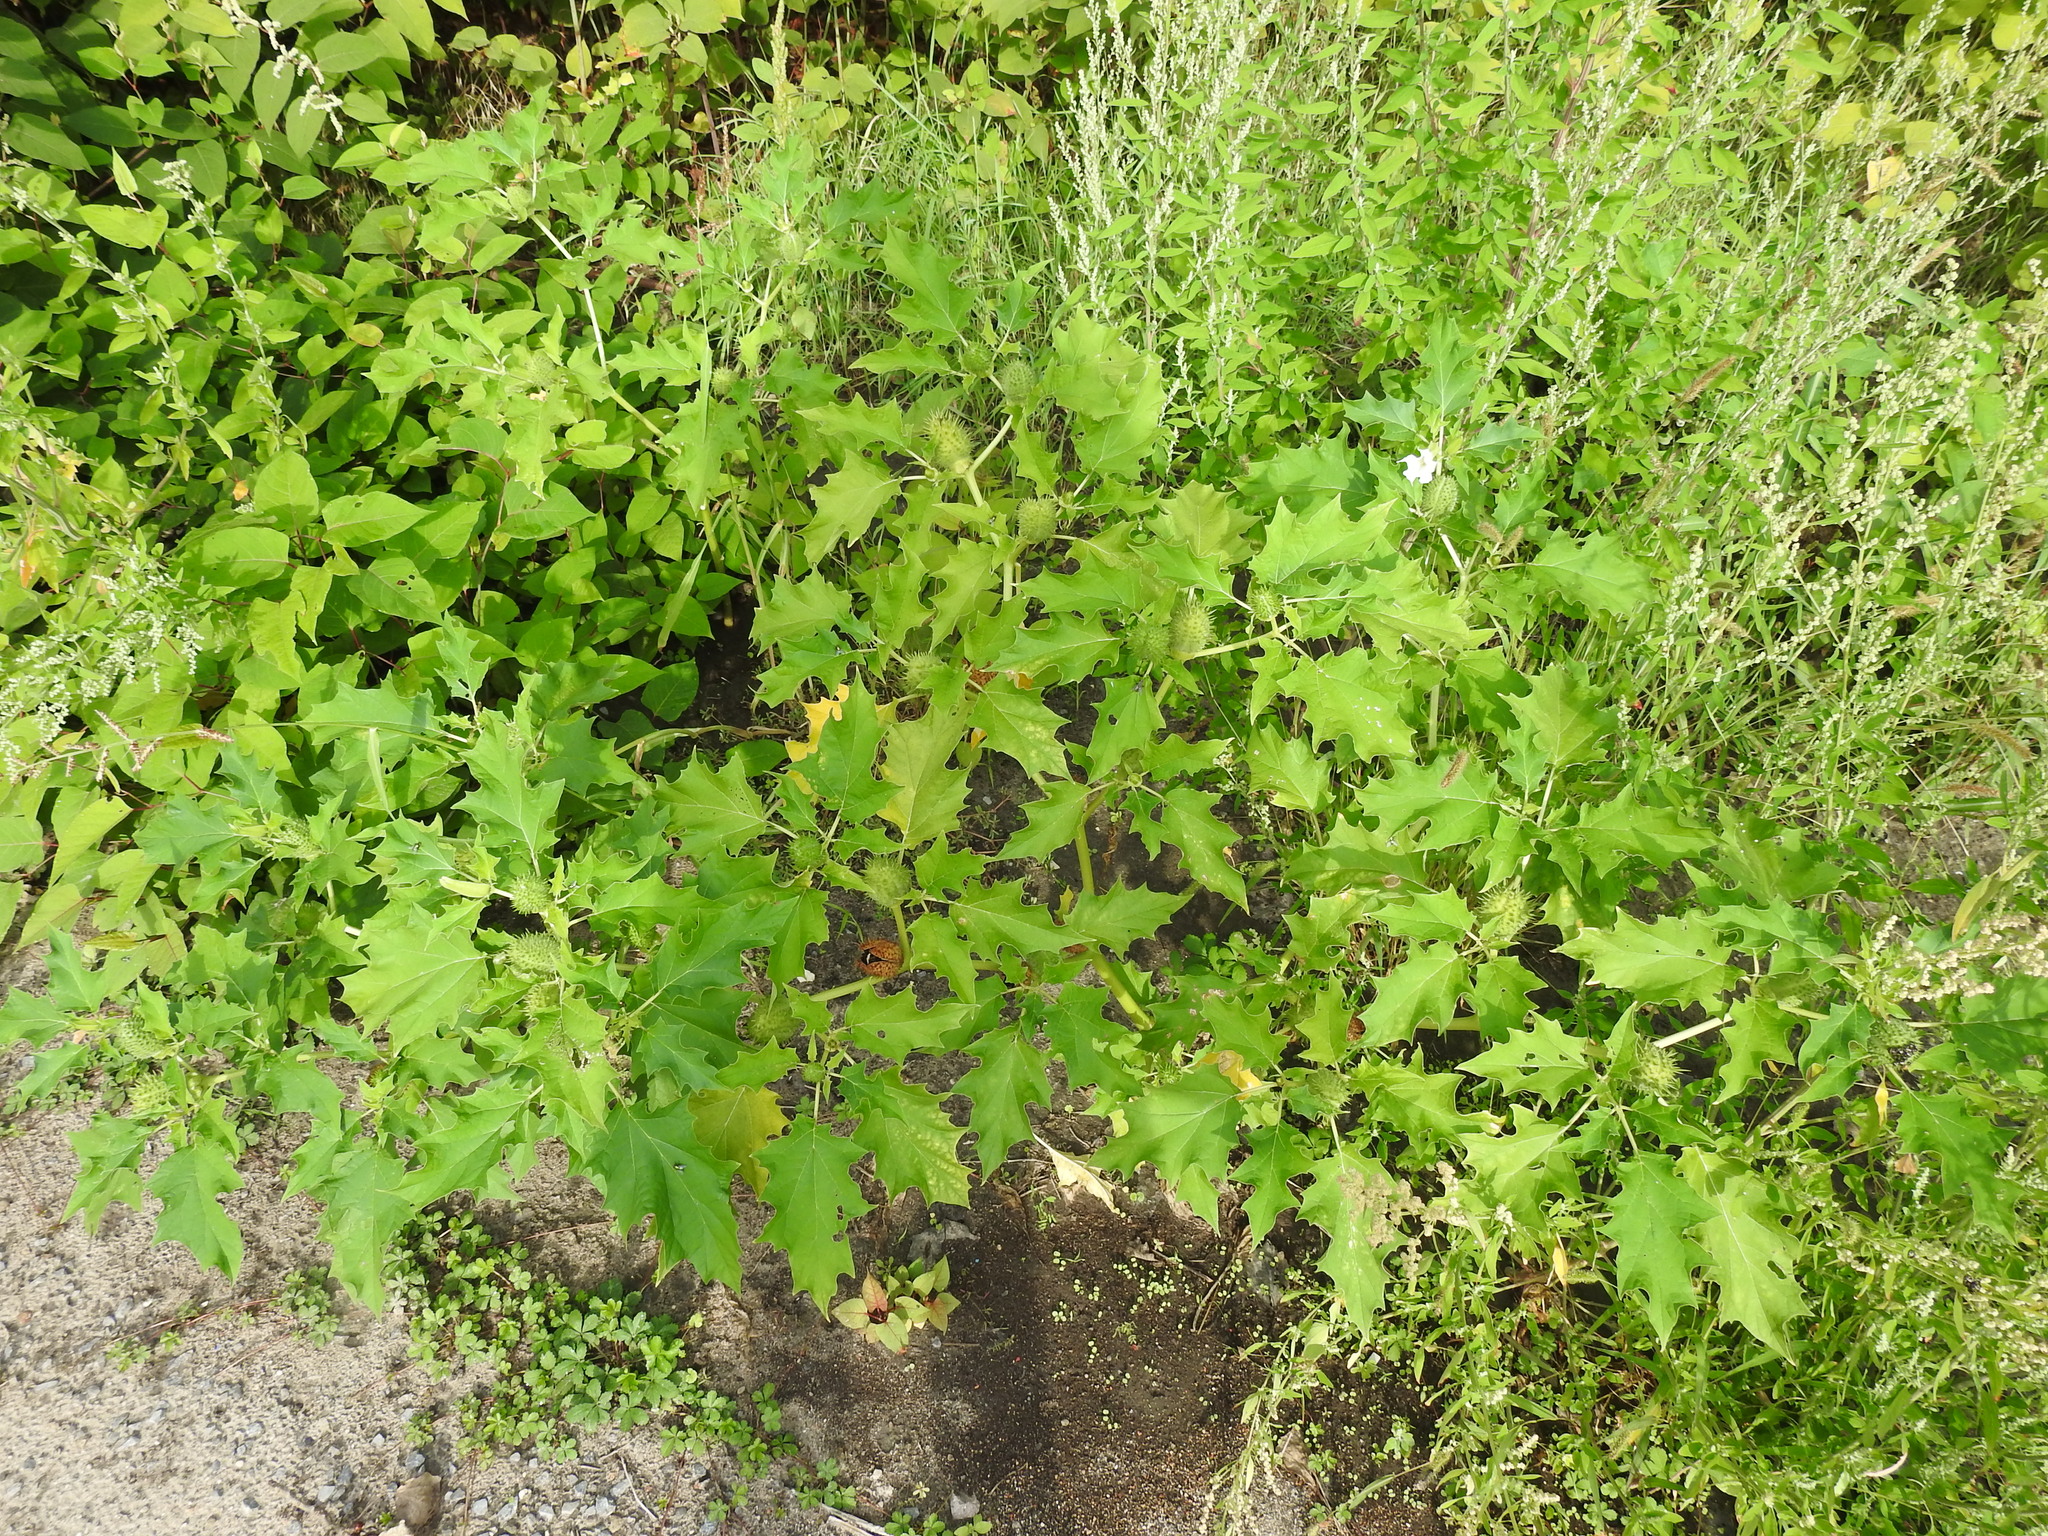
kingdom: Plantae
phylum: Tracheophyta
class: Magnoliopsida
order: Solanales
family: Solanaceae
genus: Datura
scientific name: Datura stramonium
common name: Thorn-apple
